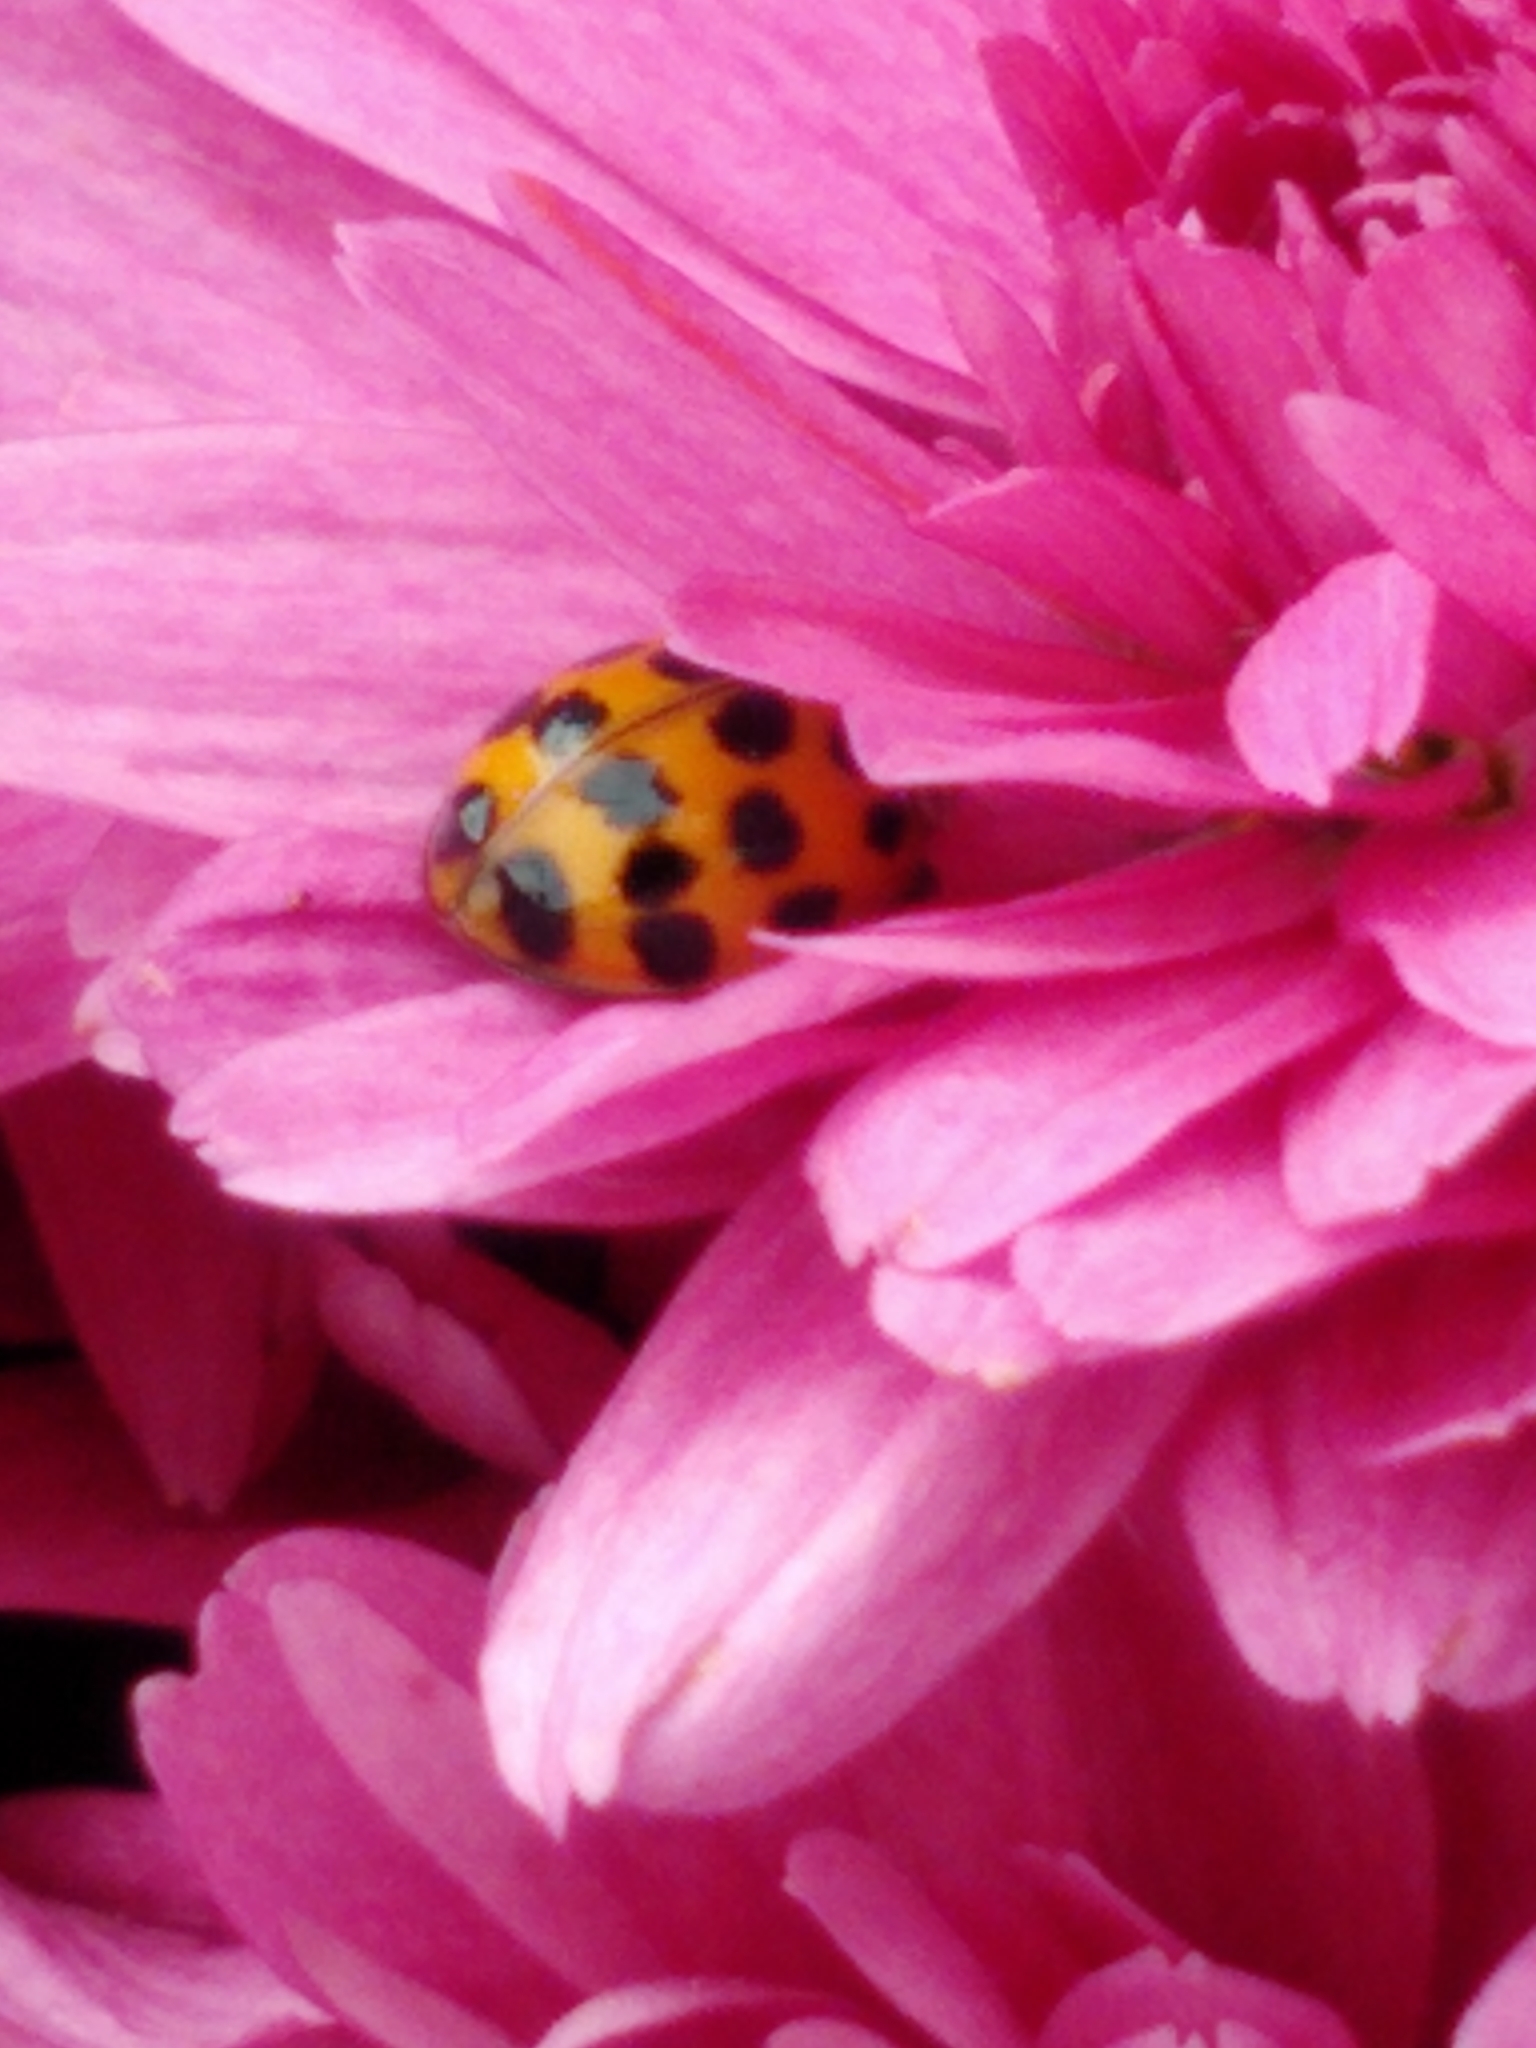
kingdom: Animalia
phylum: Arthropoda
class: Insecta
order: Coleoptera
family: Coccinellidae
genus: Harmonia
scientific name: Harmonia axyridis
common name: Harlequin ladybird
